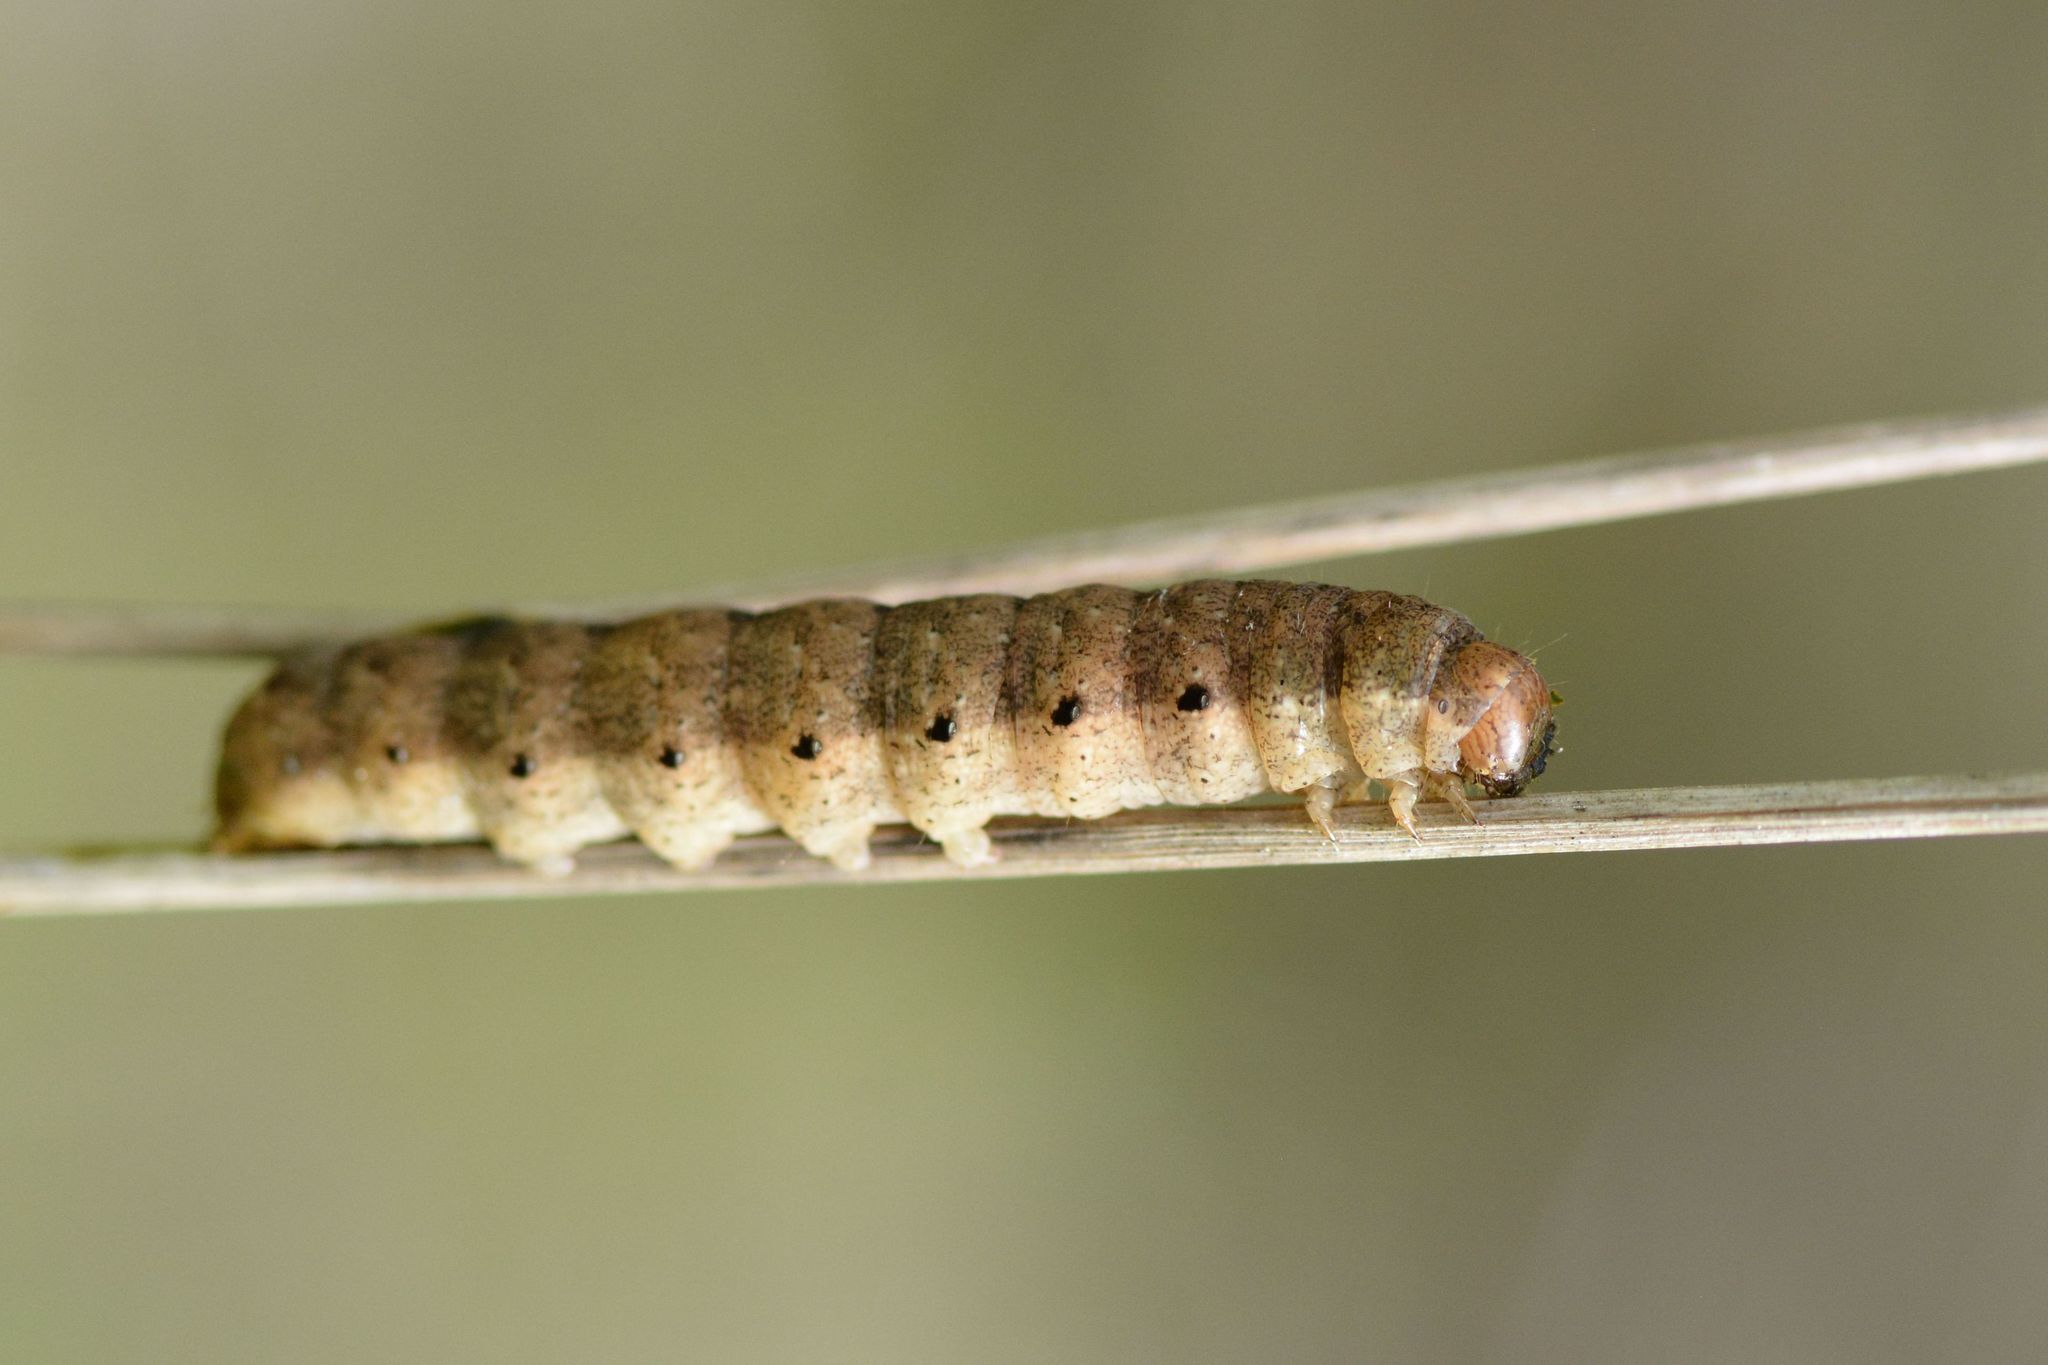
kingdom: Animalia
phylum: Arthropoda
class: Insecta
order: Lepidoptera
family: Noctuidae
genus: Noctua
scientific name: Noctua fimbriata
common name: Broad-bordered yellow underwing
